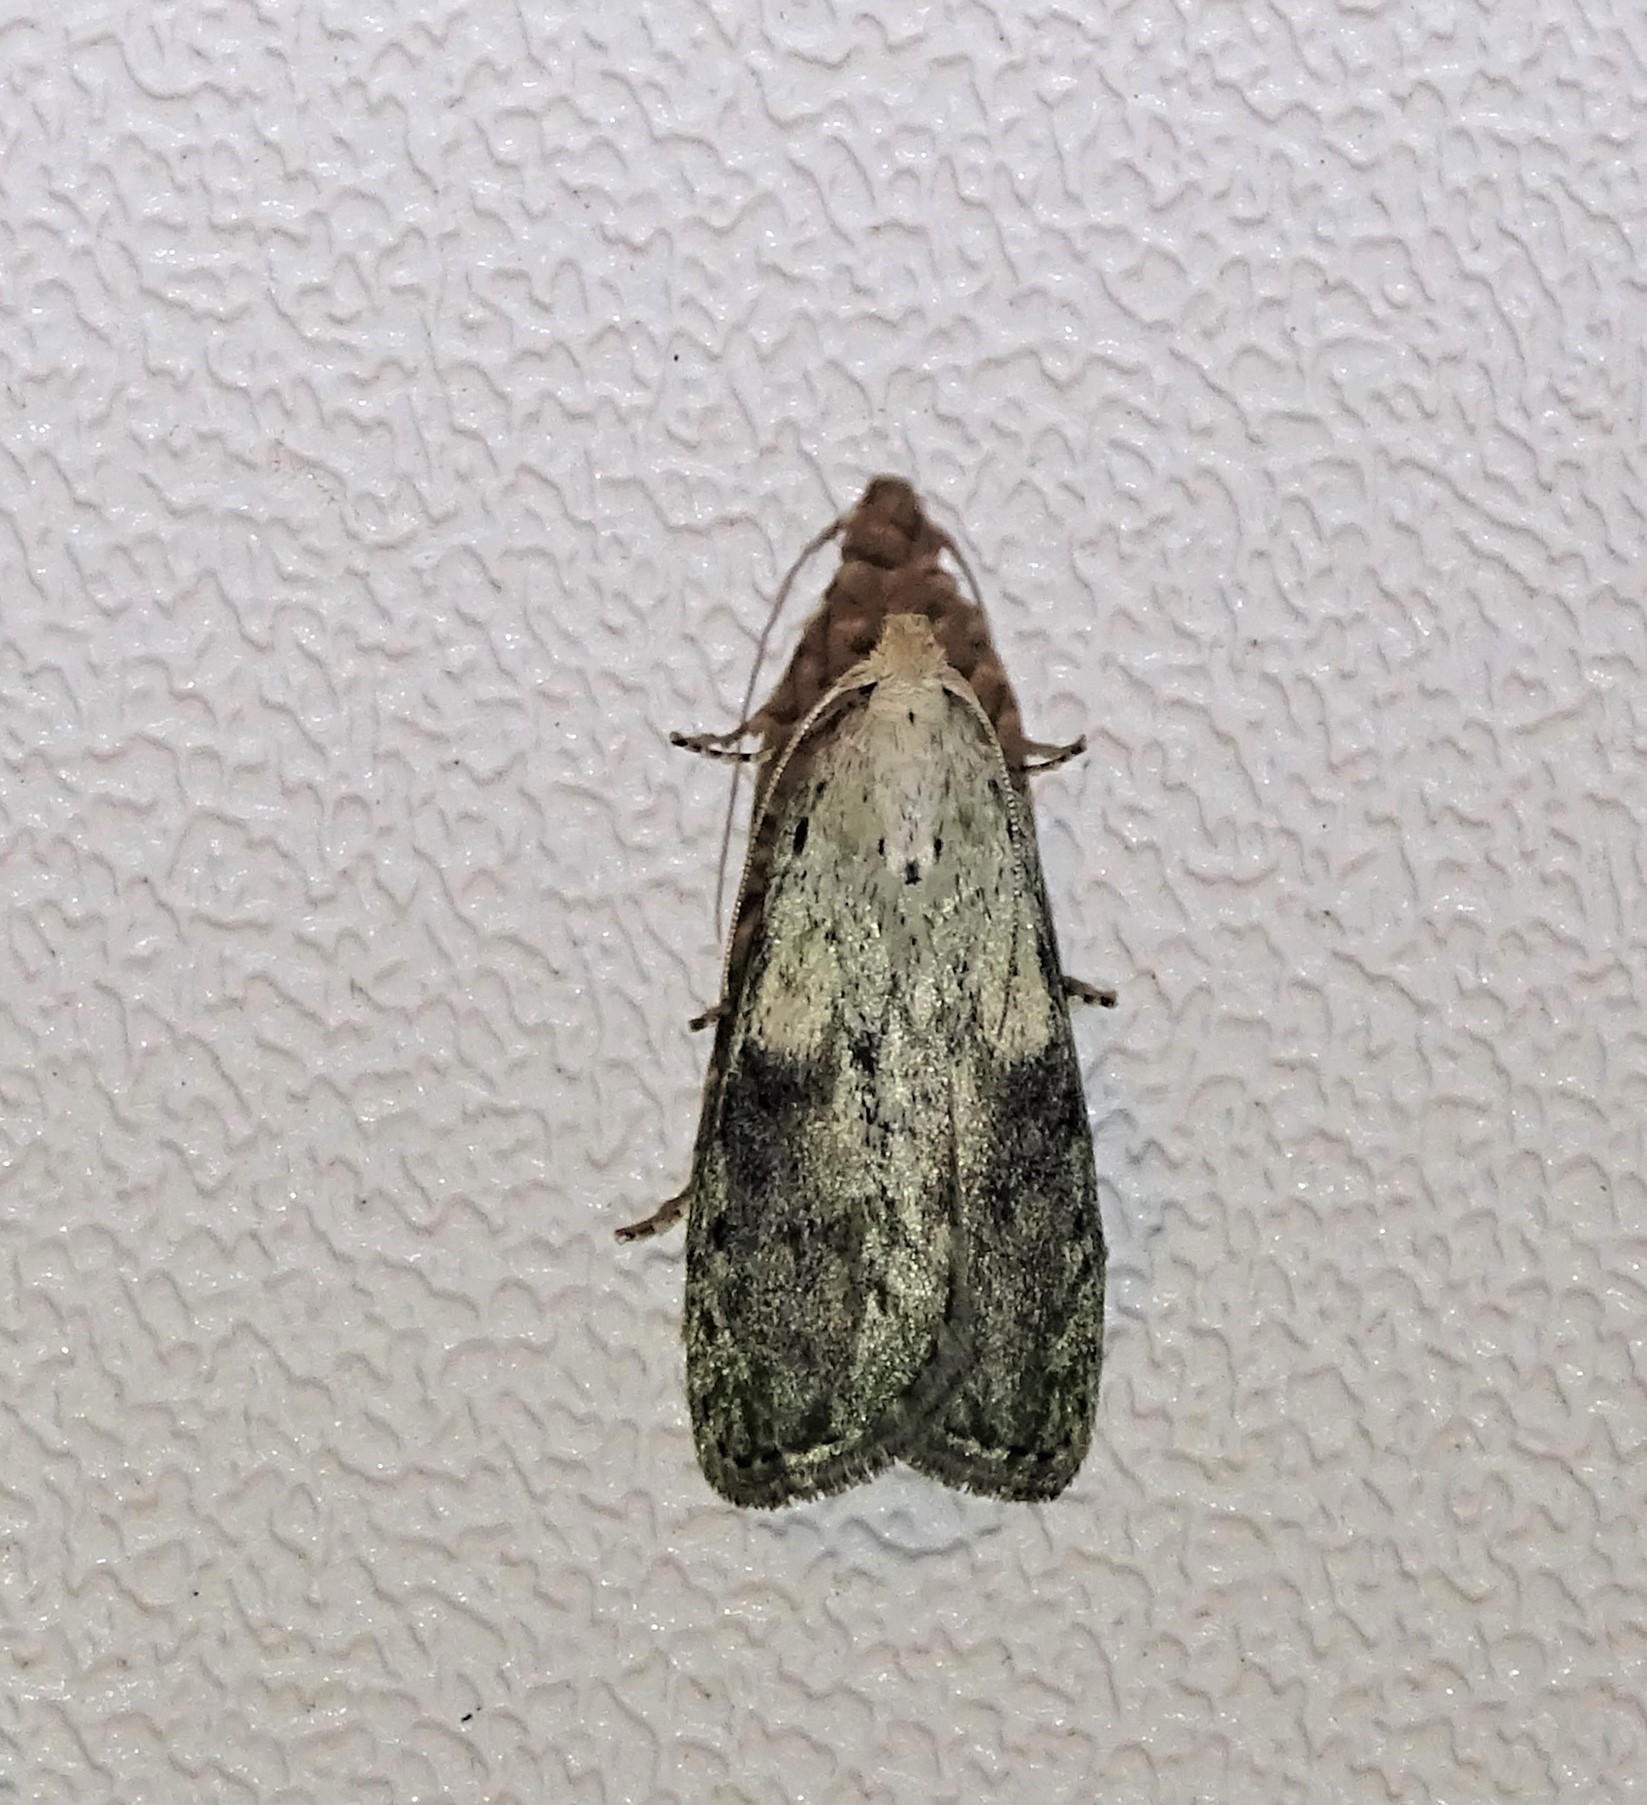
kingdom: Animalia
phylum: Arthropoda
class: Insecta
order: Lepidoptera
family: Pyralidae
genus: Aphomia
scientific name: Aphomia sociella
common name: Bee moth
